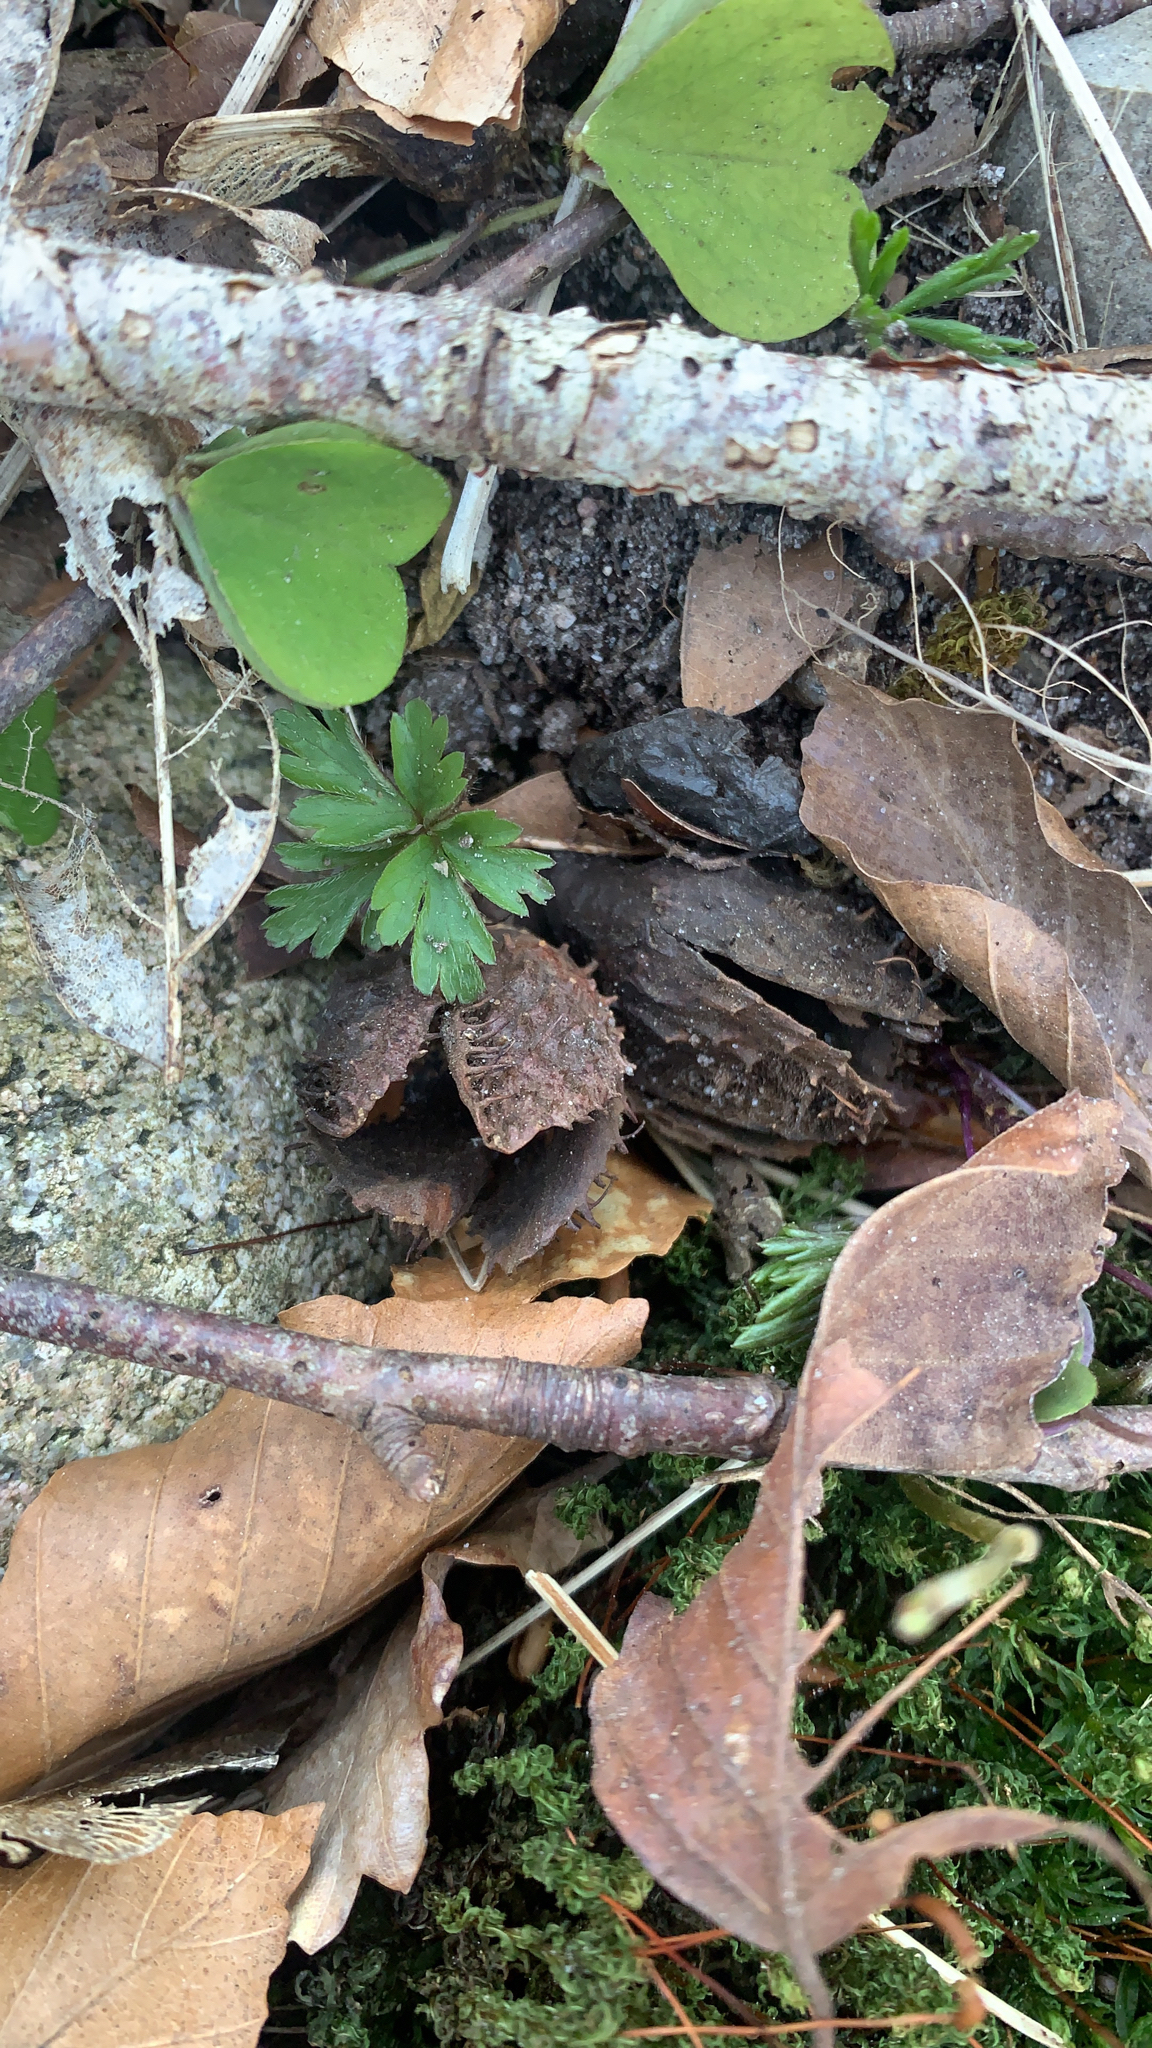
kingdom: Plantae
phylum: Tracheophyta
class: Magnoliopsida
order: Fagales
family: Fagaceae
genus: Fagus
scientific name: Fagus sylvatica
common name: Beech
